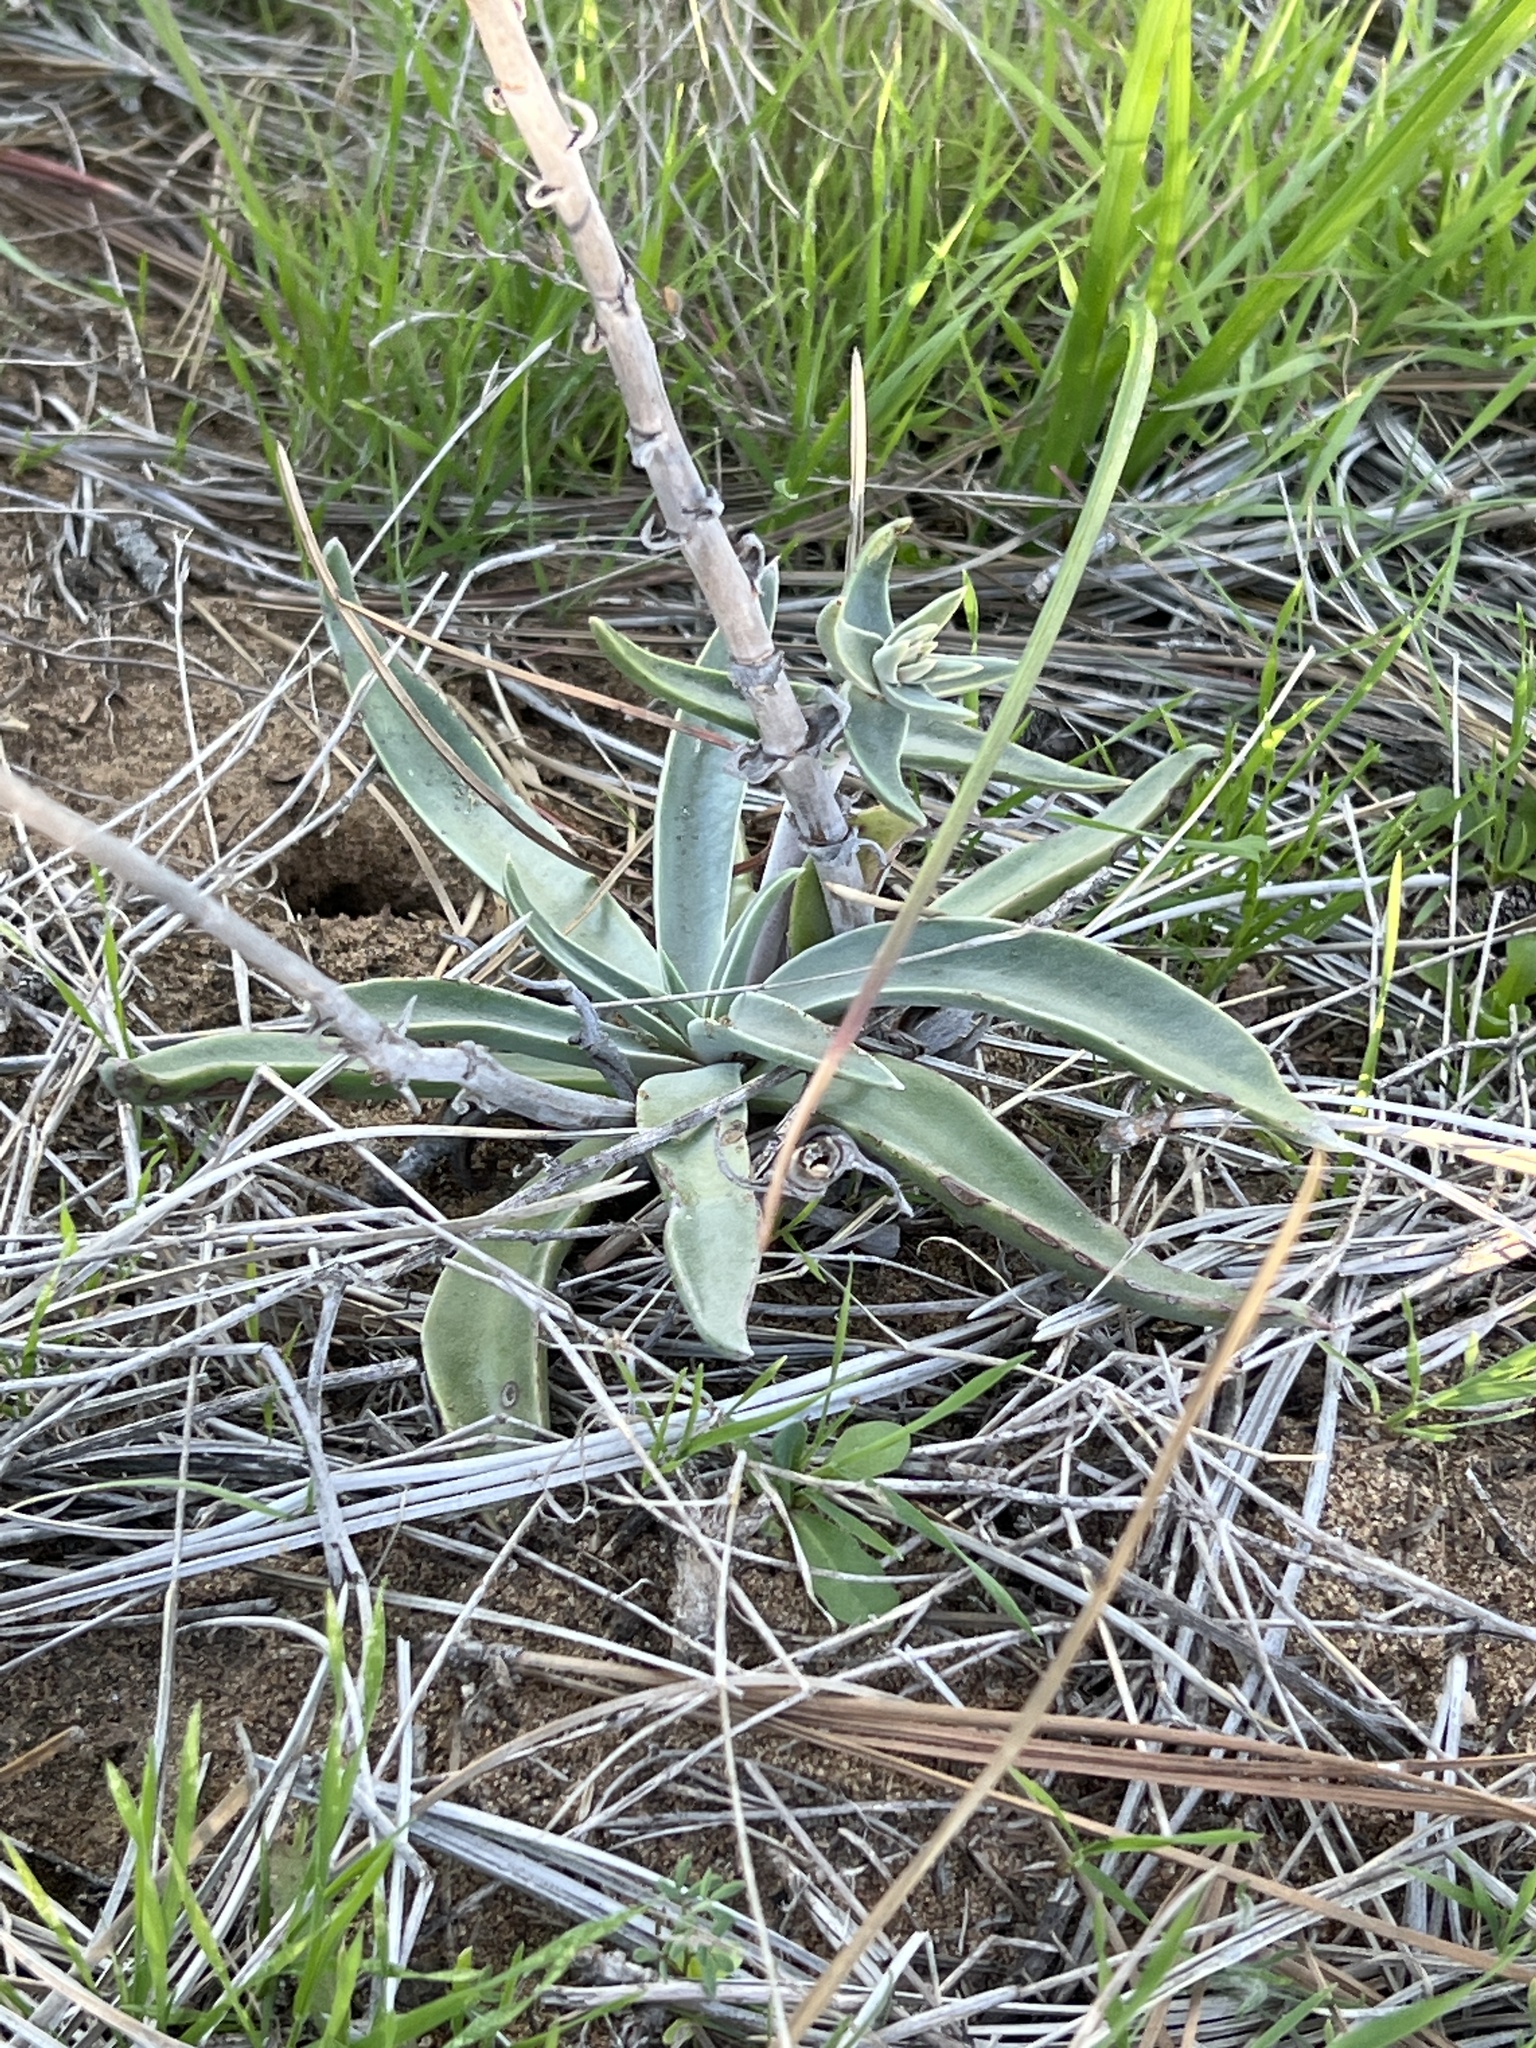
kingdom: Plantae
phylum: Tracheophyta
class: Magnoliopsida
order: Saxifragales
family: Crassulaceae
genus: Dudleya
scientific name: Dudleya lanceolata
